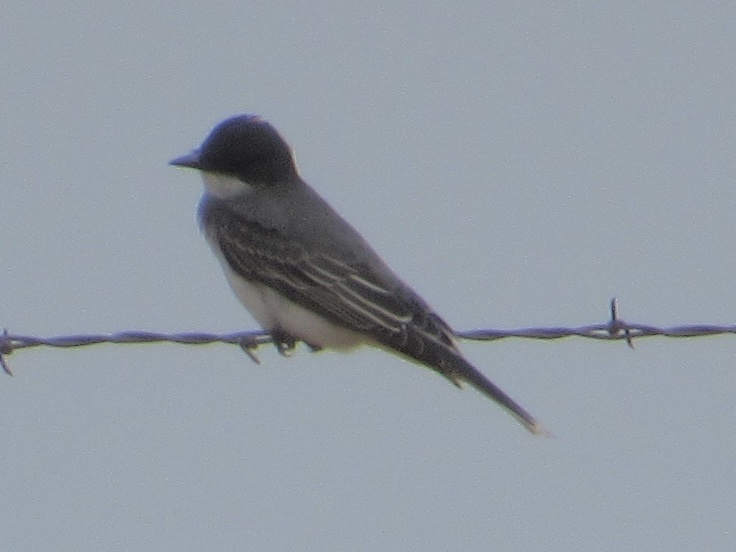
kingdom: Animalia
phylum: Chordata
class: Aves
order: Passeriformes
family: Tyrannidae
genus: Tyrannus
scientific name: Tyrannus tyrannus
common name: Eastern kingbird
